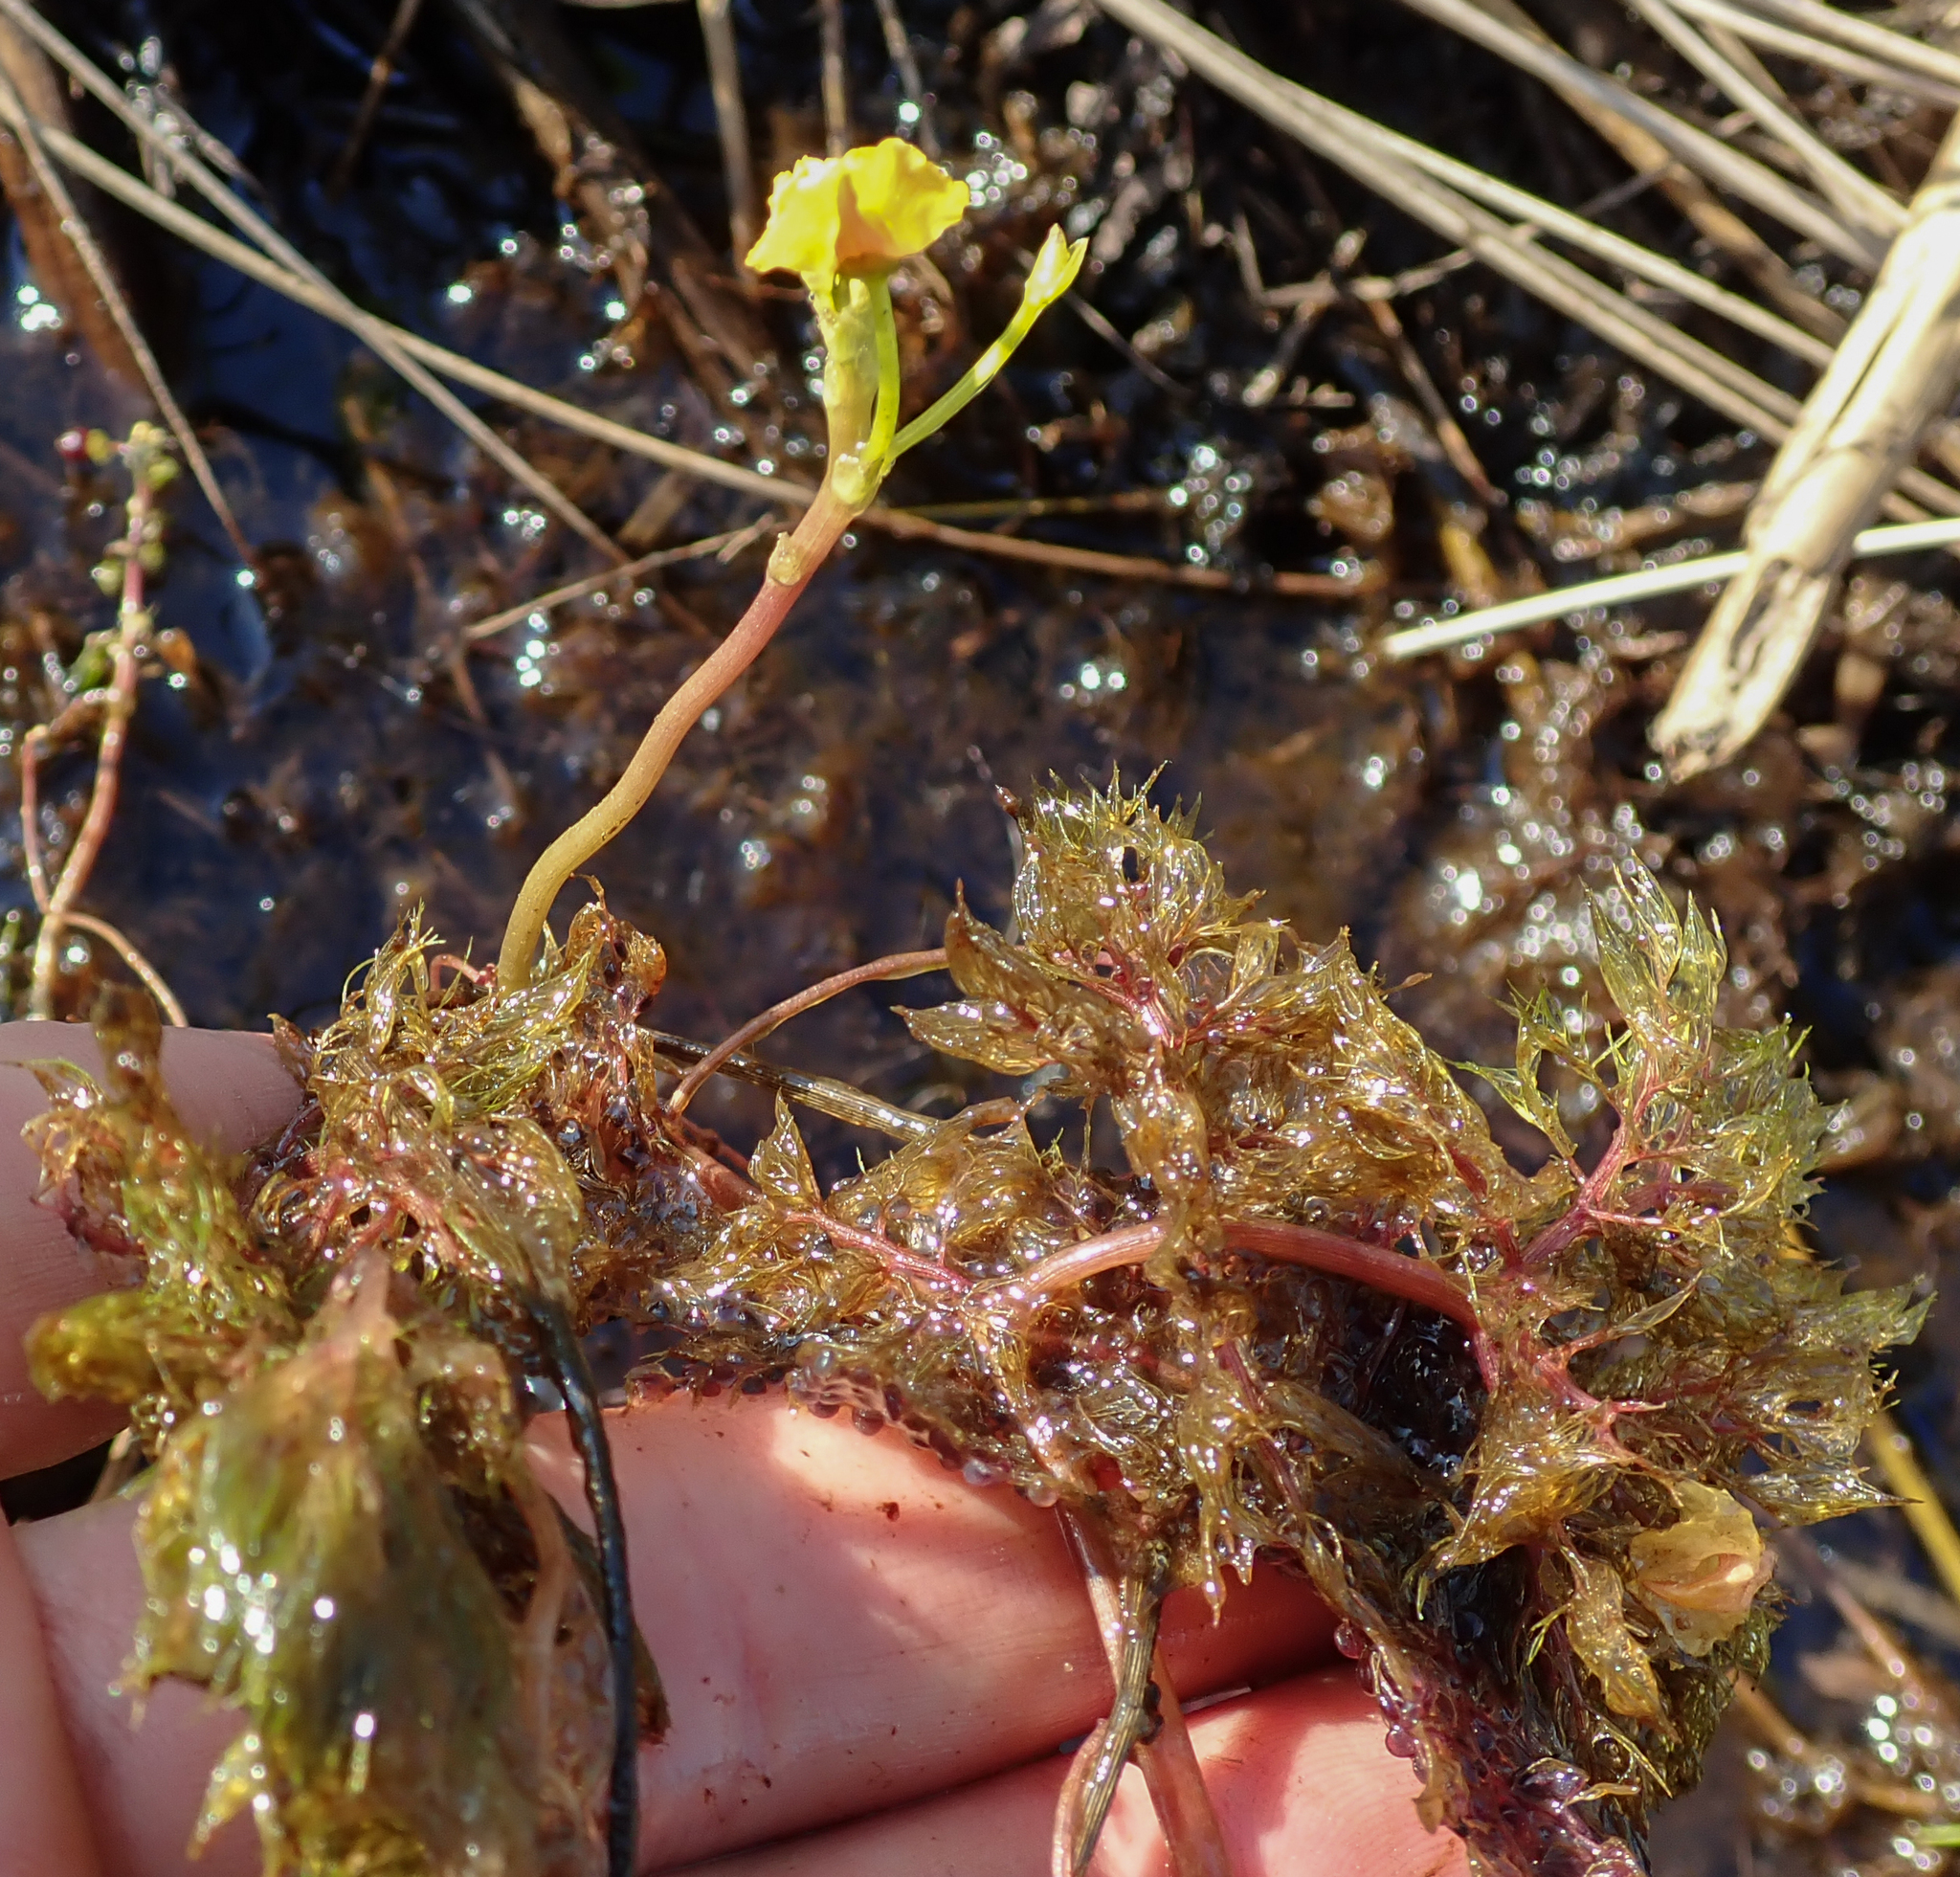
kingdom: Plantae
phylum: Tracheophyta
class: Magnoliopsida
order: Lamiales
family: Lentibulariaceae
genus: Utricularia
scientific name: Utricularia foliosa
